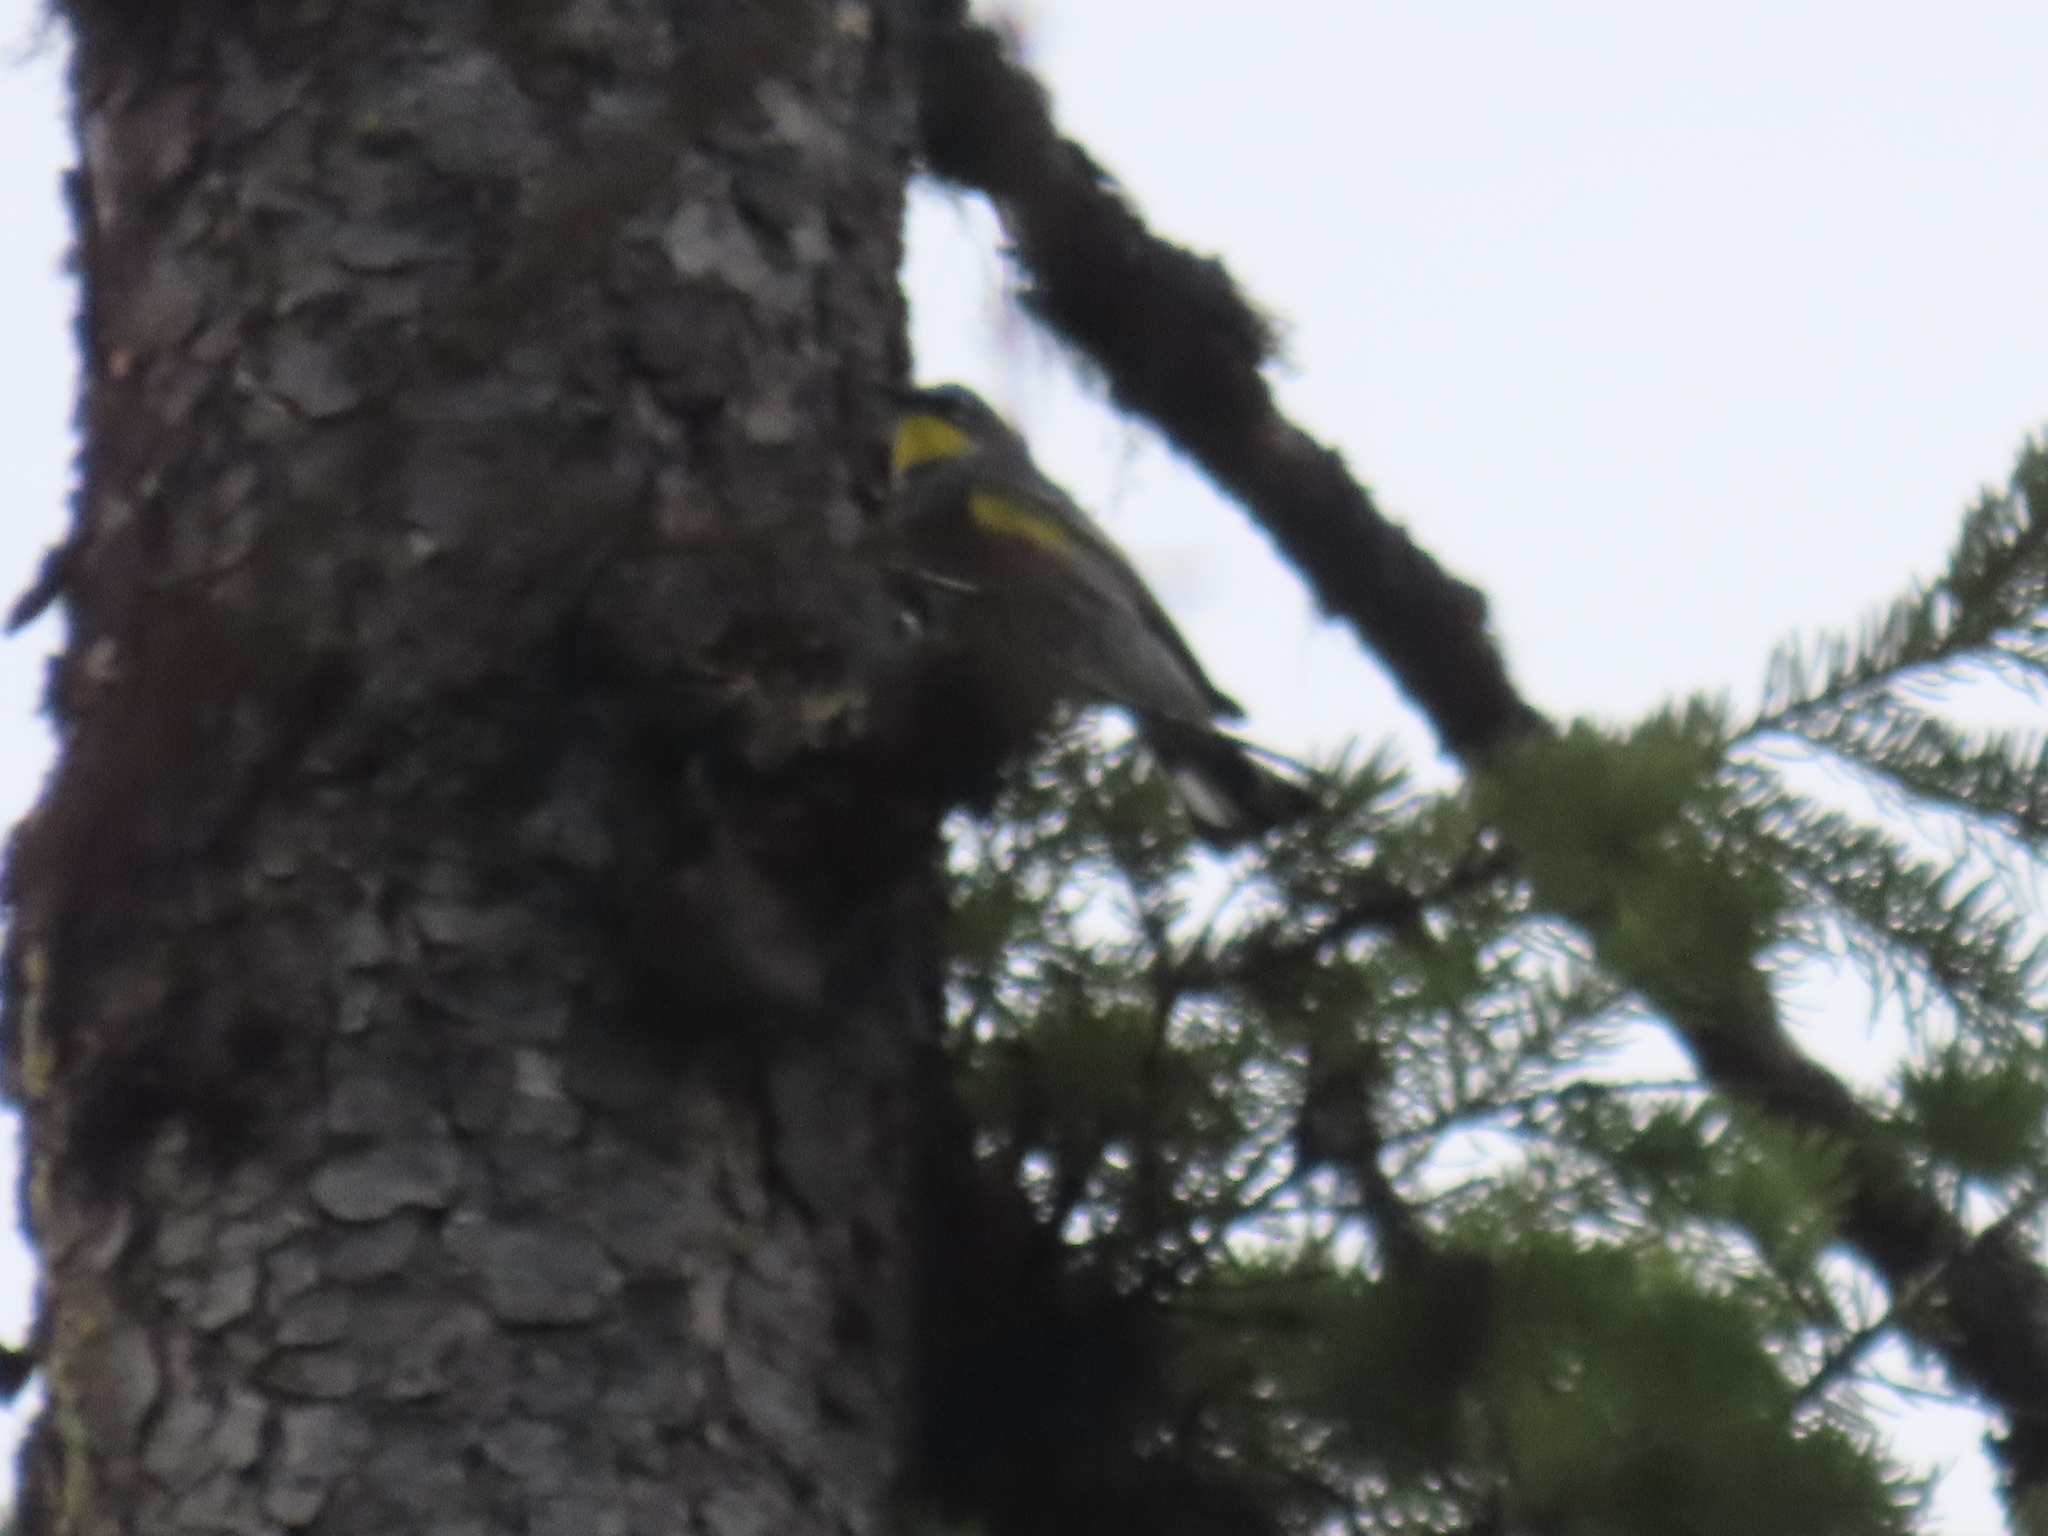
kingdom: Animalia
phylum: Chordata
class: Aves
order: Passeriformes
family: Parulidae
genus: Setophaga
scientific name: Setophaga coronata
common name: Myrtle warbler
